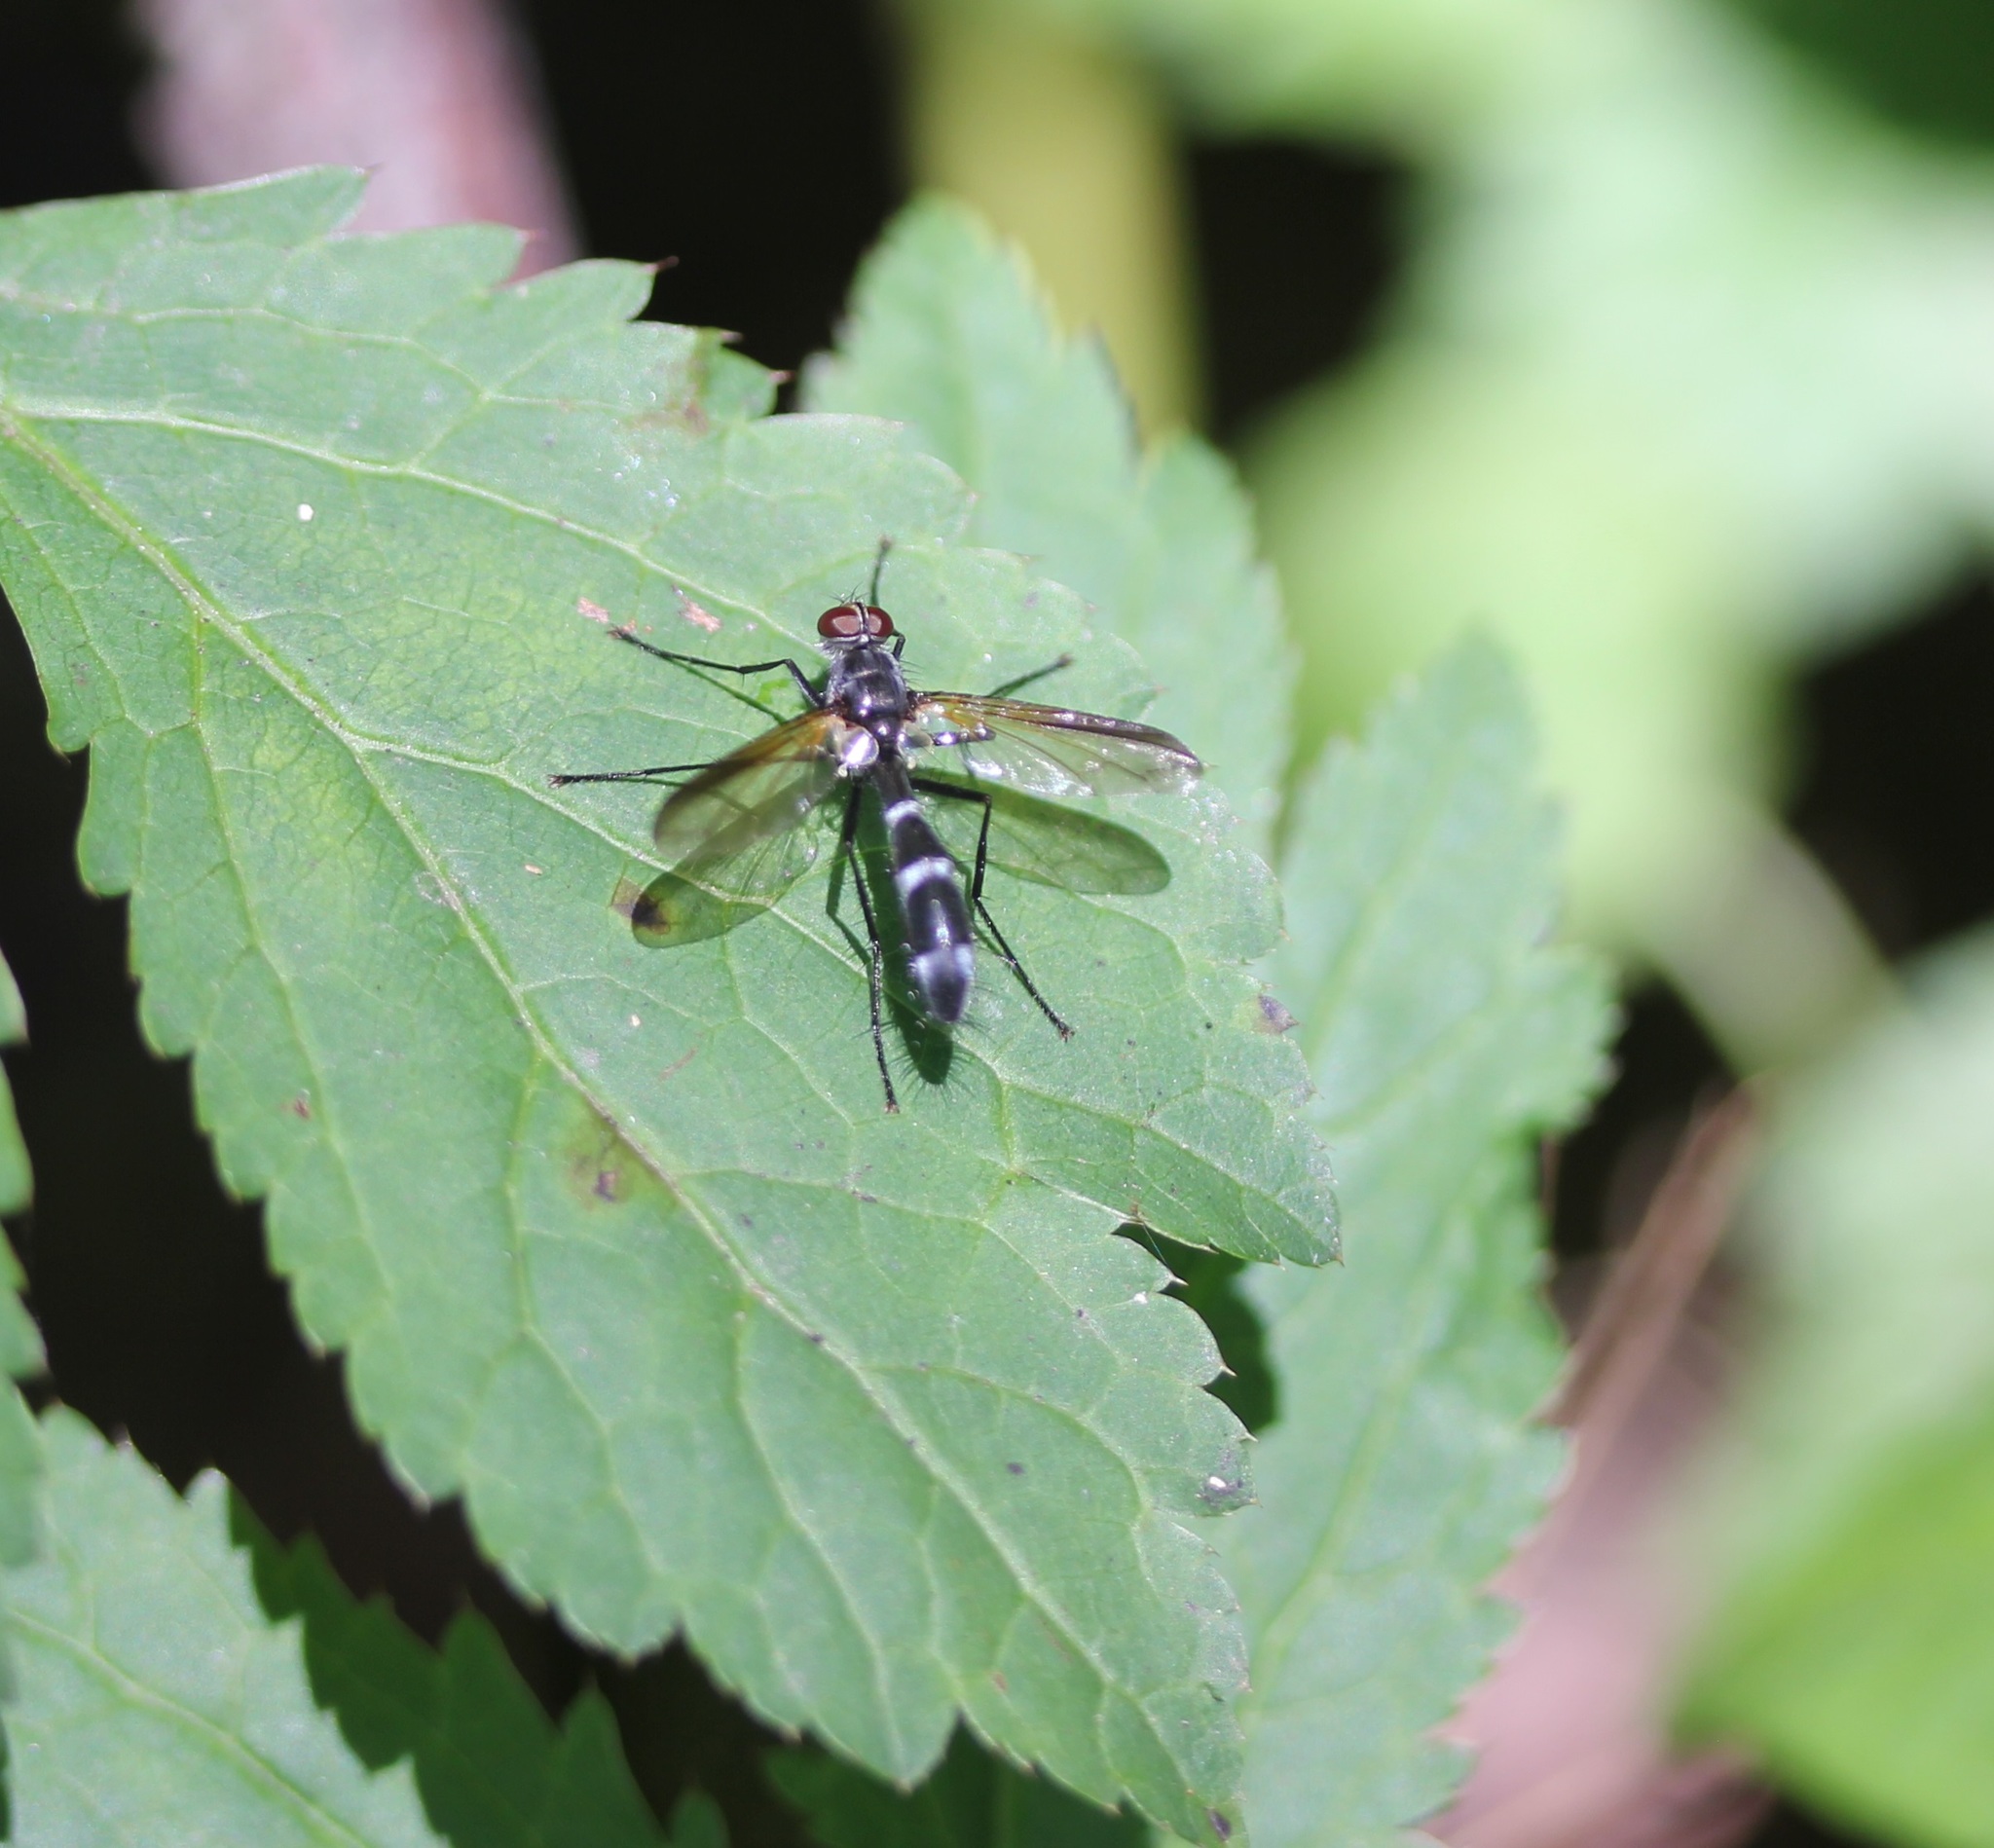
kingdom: Animalia
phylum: Arthropoda
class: Insecta
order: Diptera
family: Tachinidae
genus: Cordyligaster
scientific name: Cordyligaster septentrionalis
